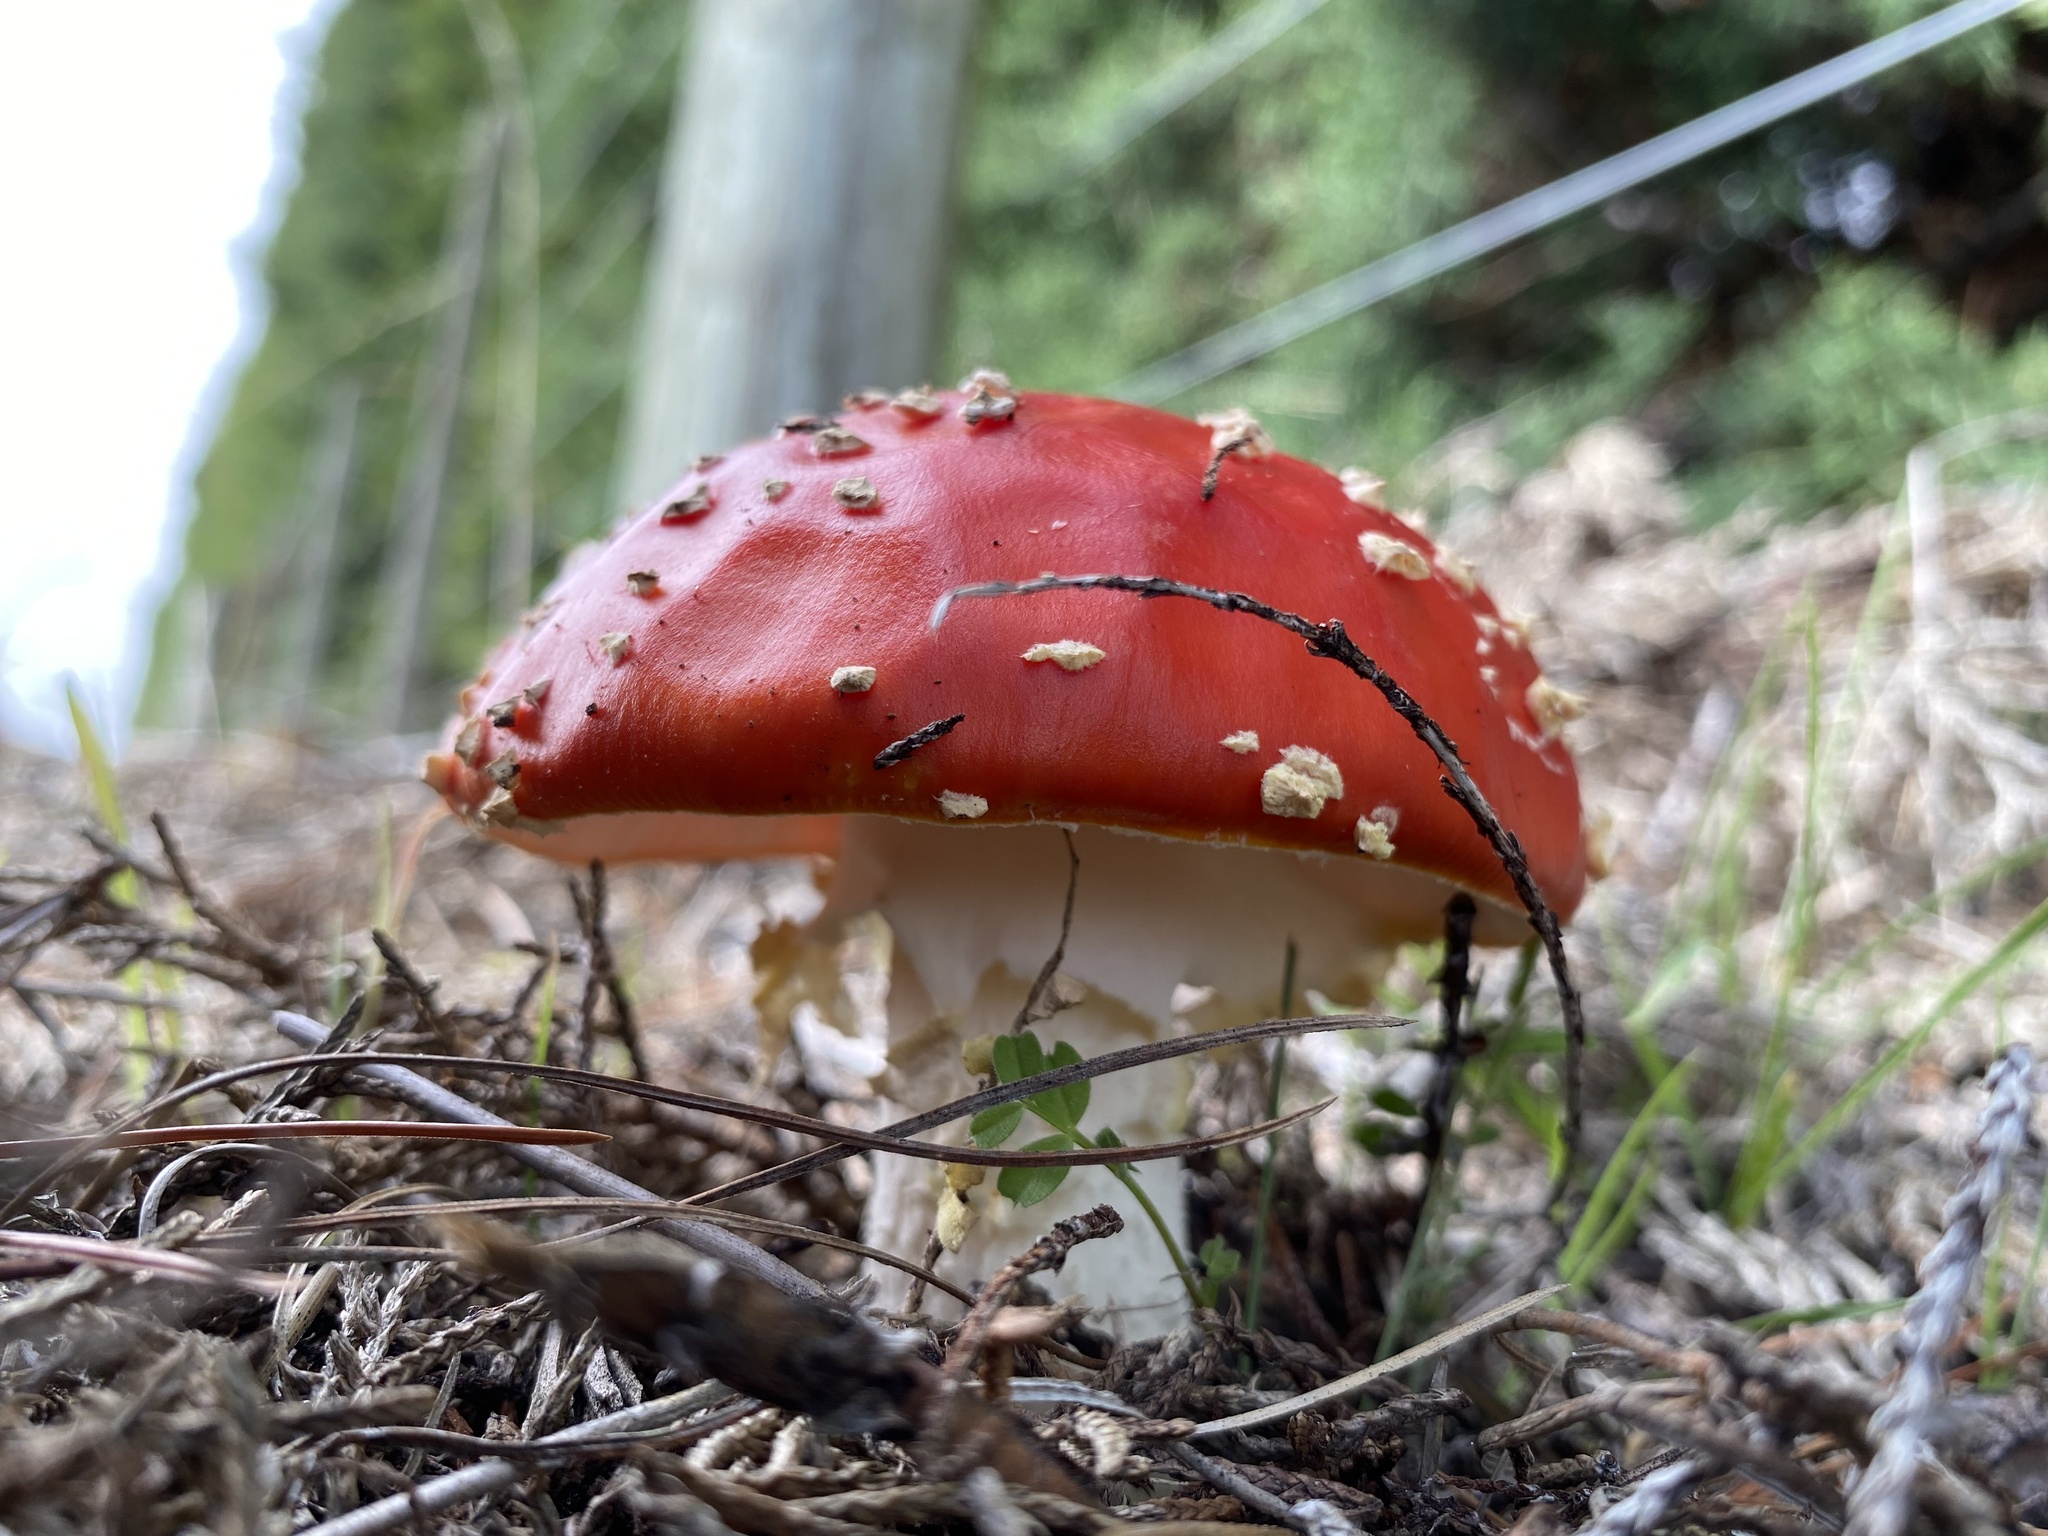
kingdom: Fungi
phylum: Basidiomycota
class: Agaricomycetes
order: Agaricales
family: Amanitaceae
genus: Amanita
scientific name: Amanita muscaria
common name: Fly agaric
